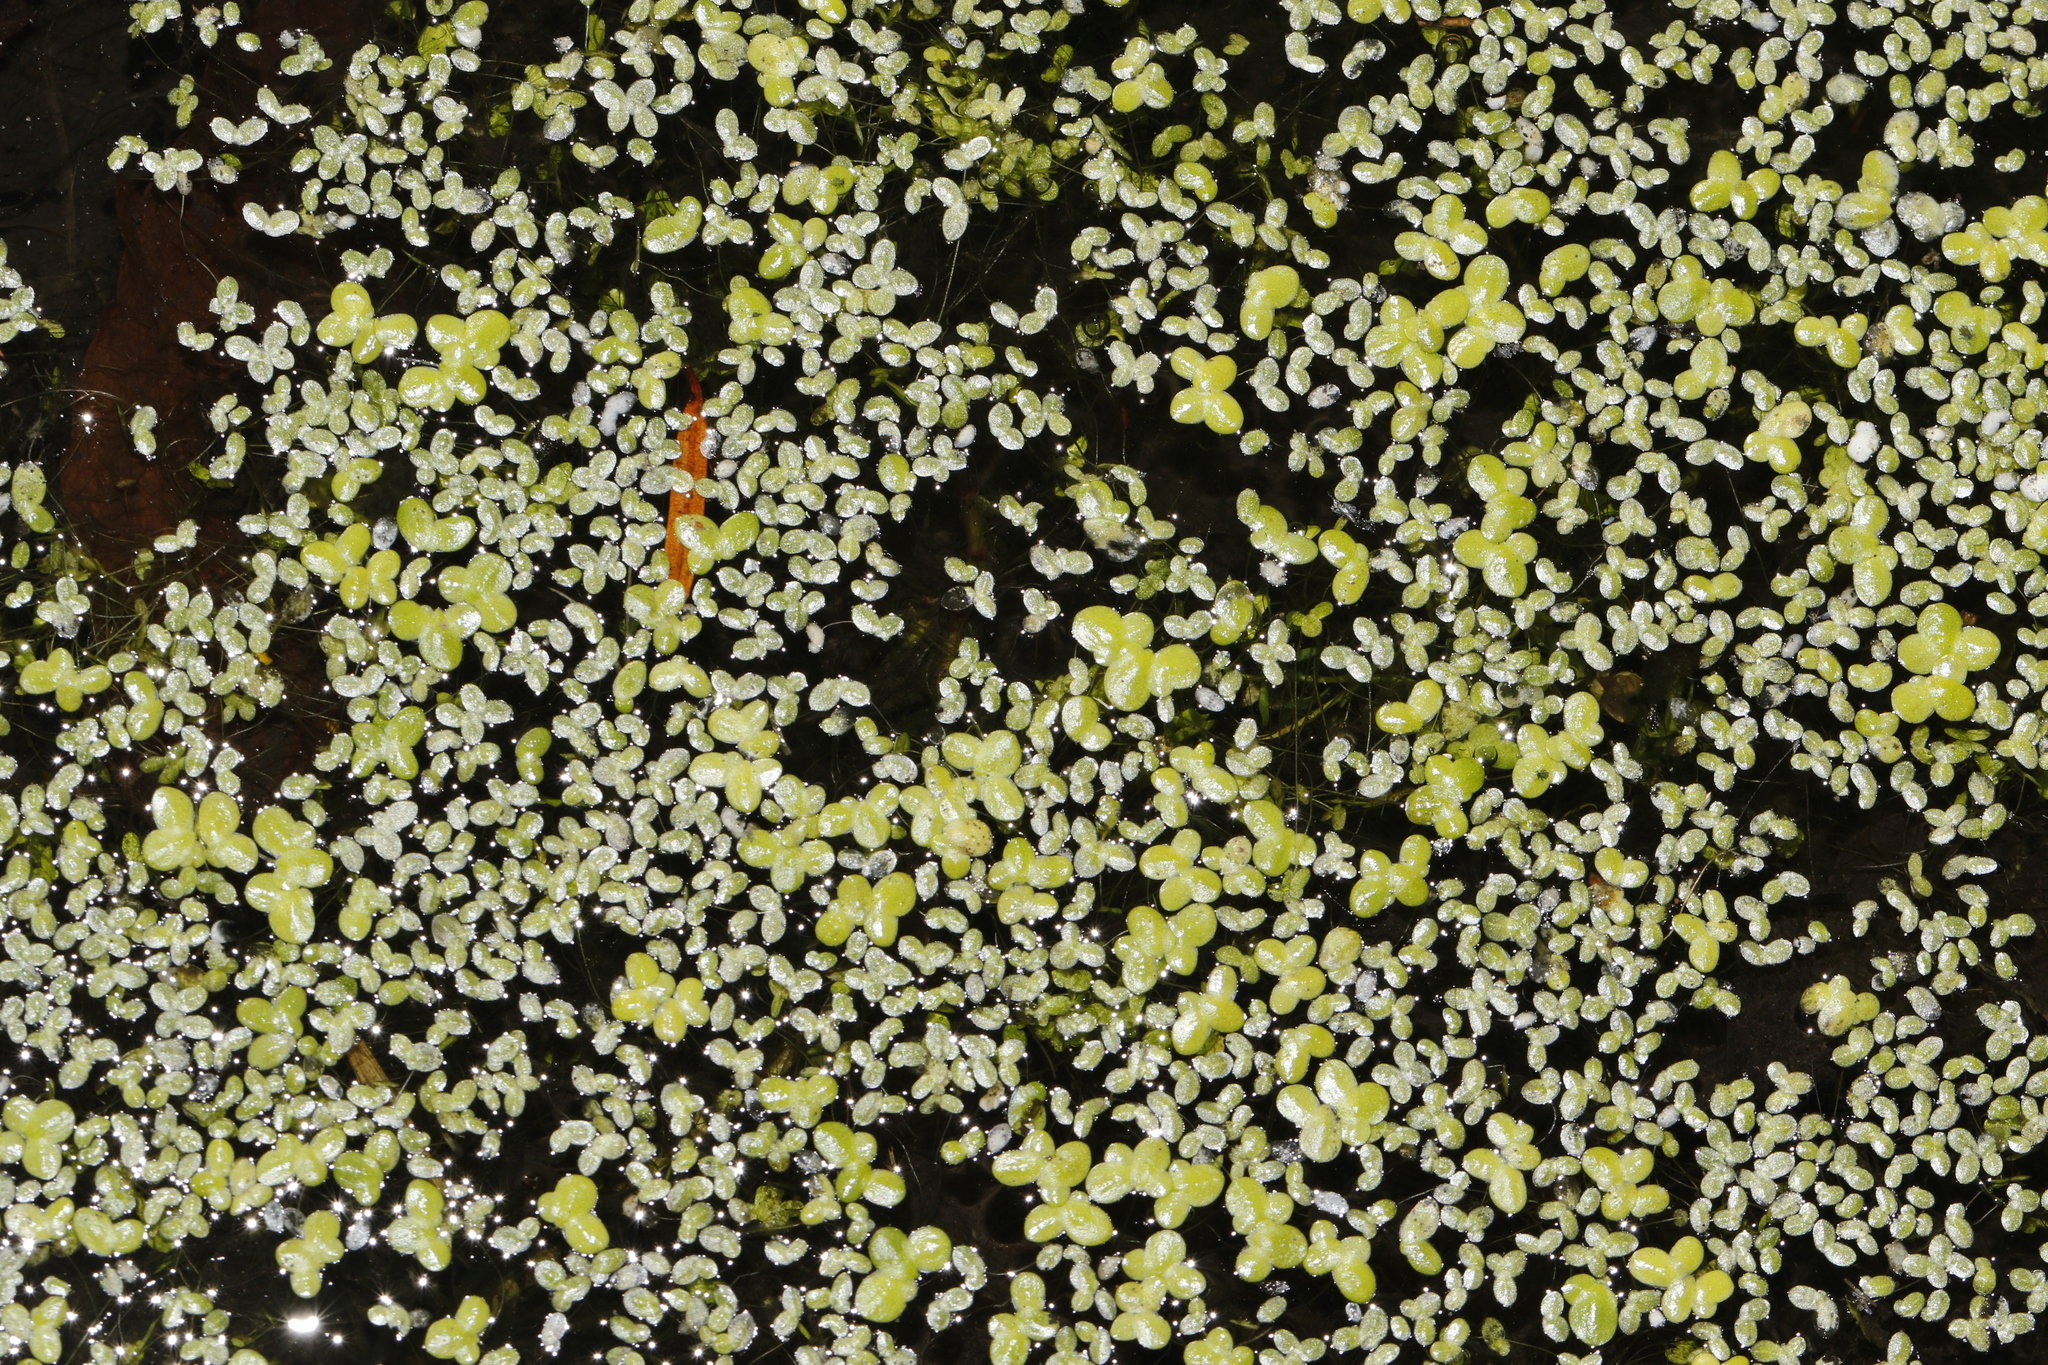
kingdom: Plantae
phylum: Tracheophyta
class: Liliopsida
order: Alismatales
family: Araceae
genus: Lemna
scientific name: Lemna minuta
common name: Least duckweed
